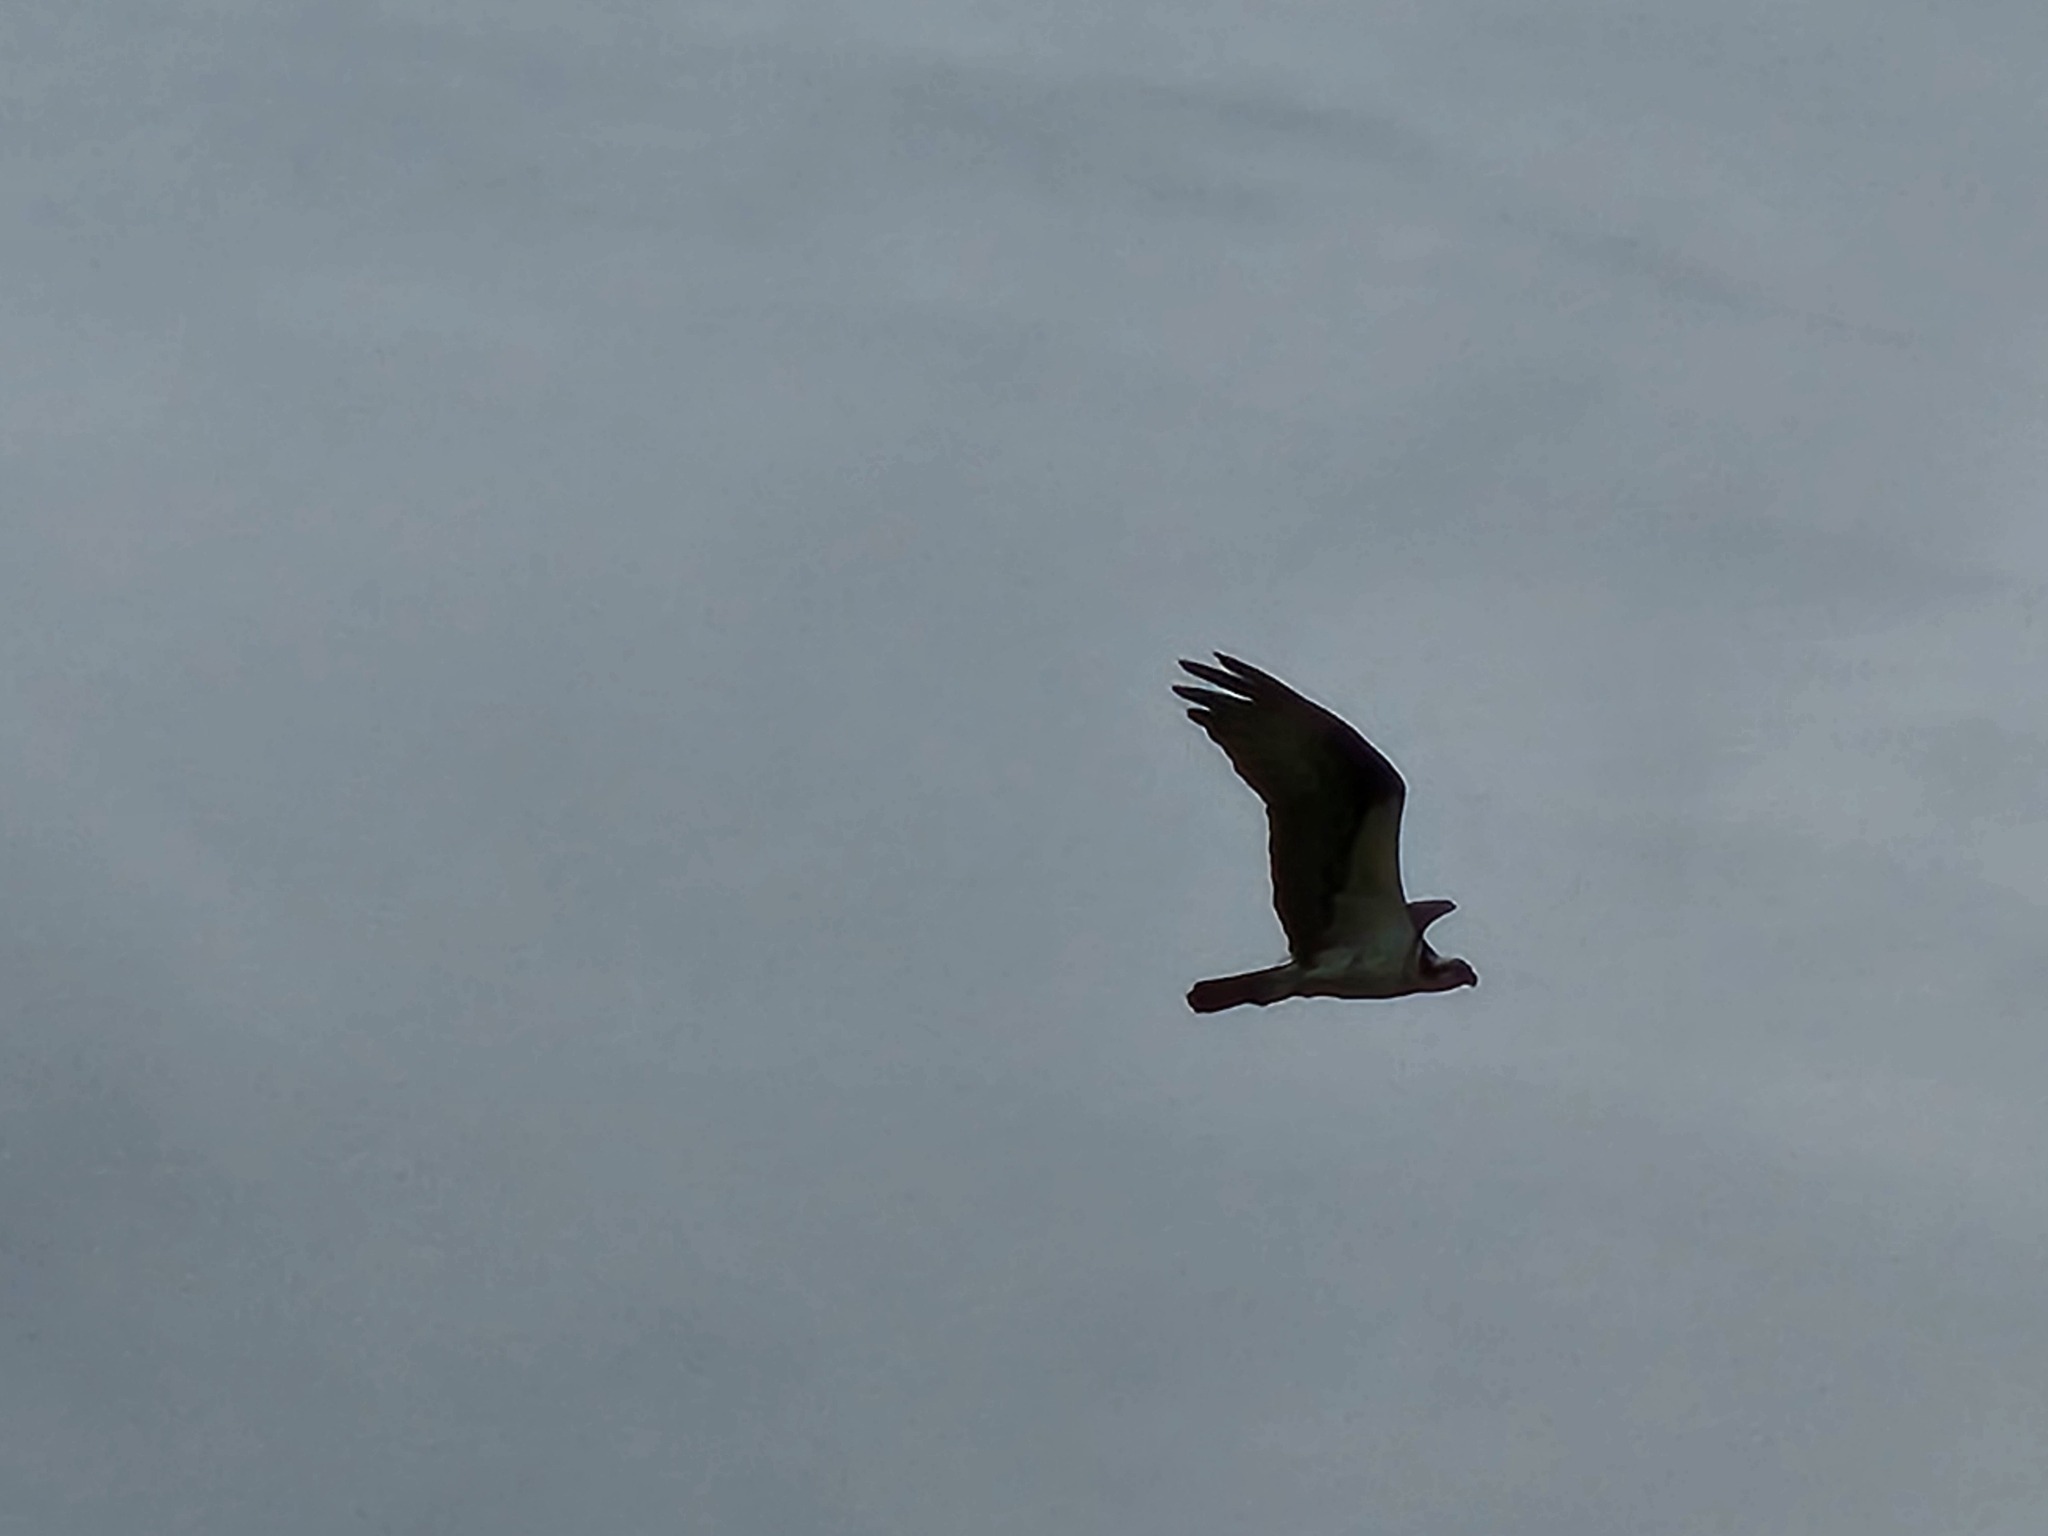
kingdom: Animalia
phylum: Chordata
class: Aves
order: Accipitriformes
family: Pandionidae
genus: Pandion
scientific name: Pandion haliaetus
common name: Osprey
